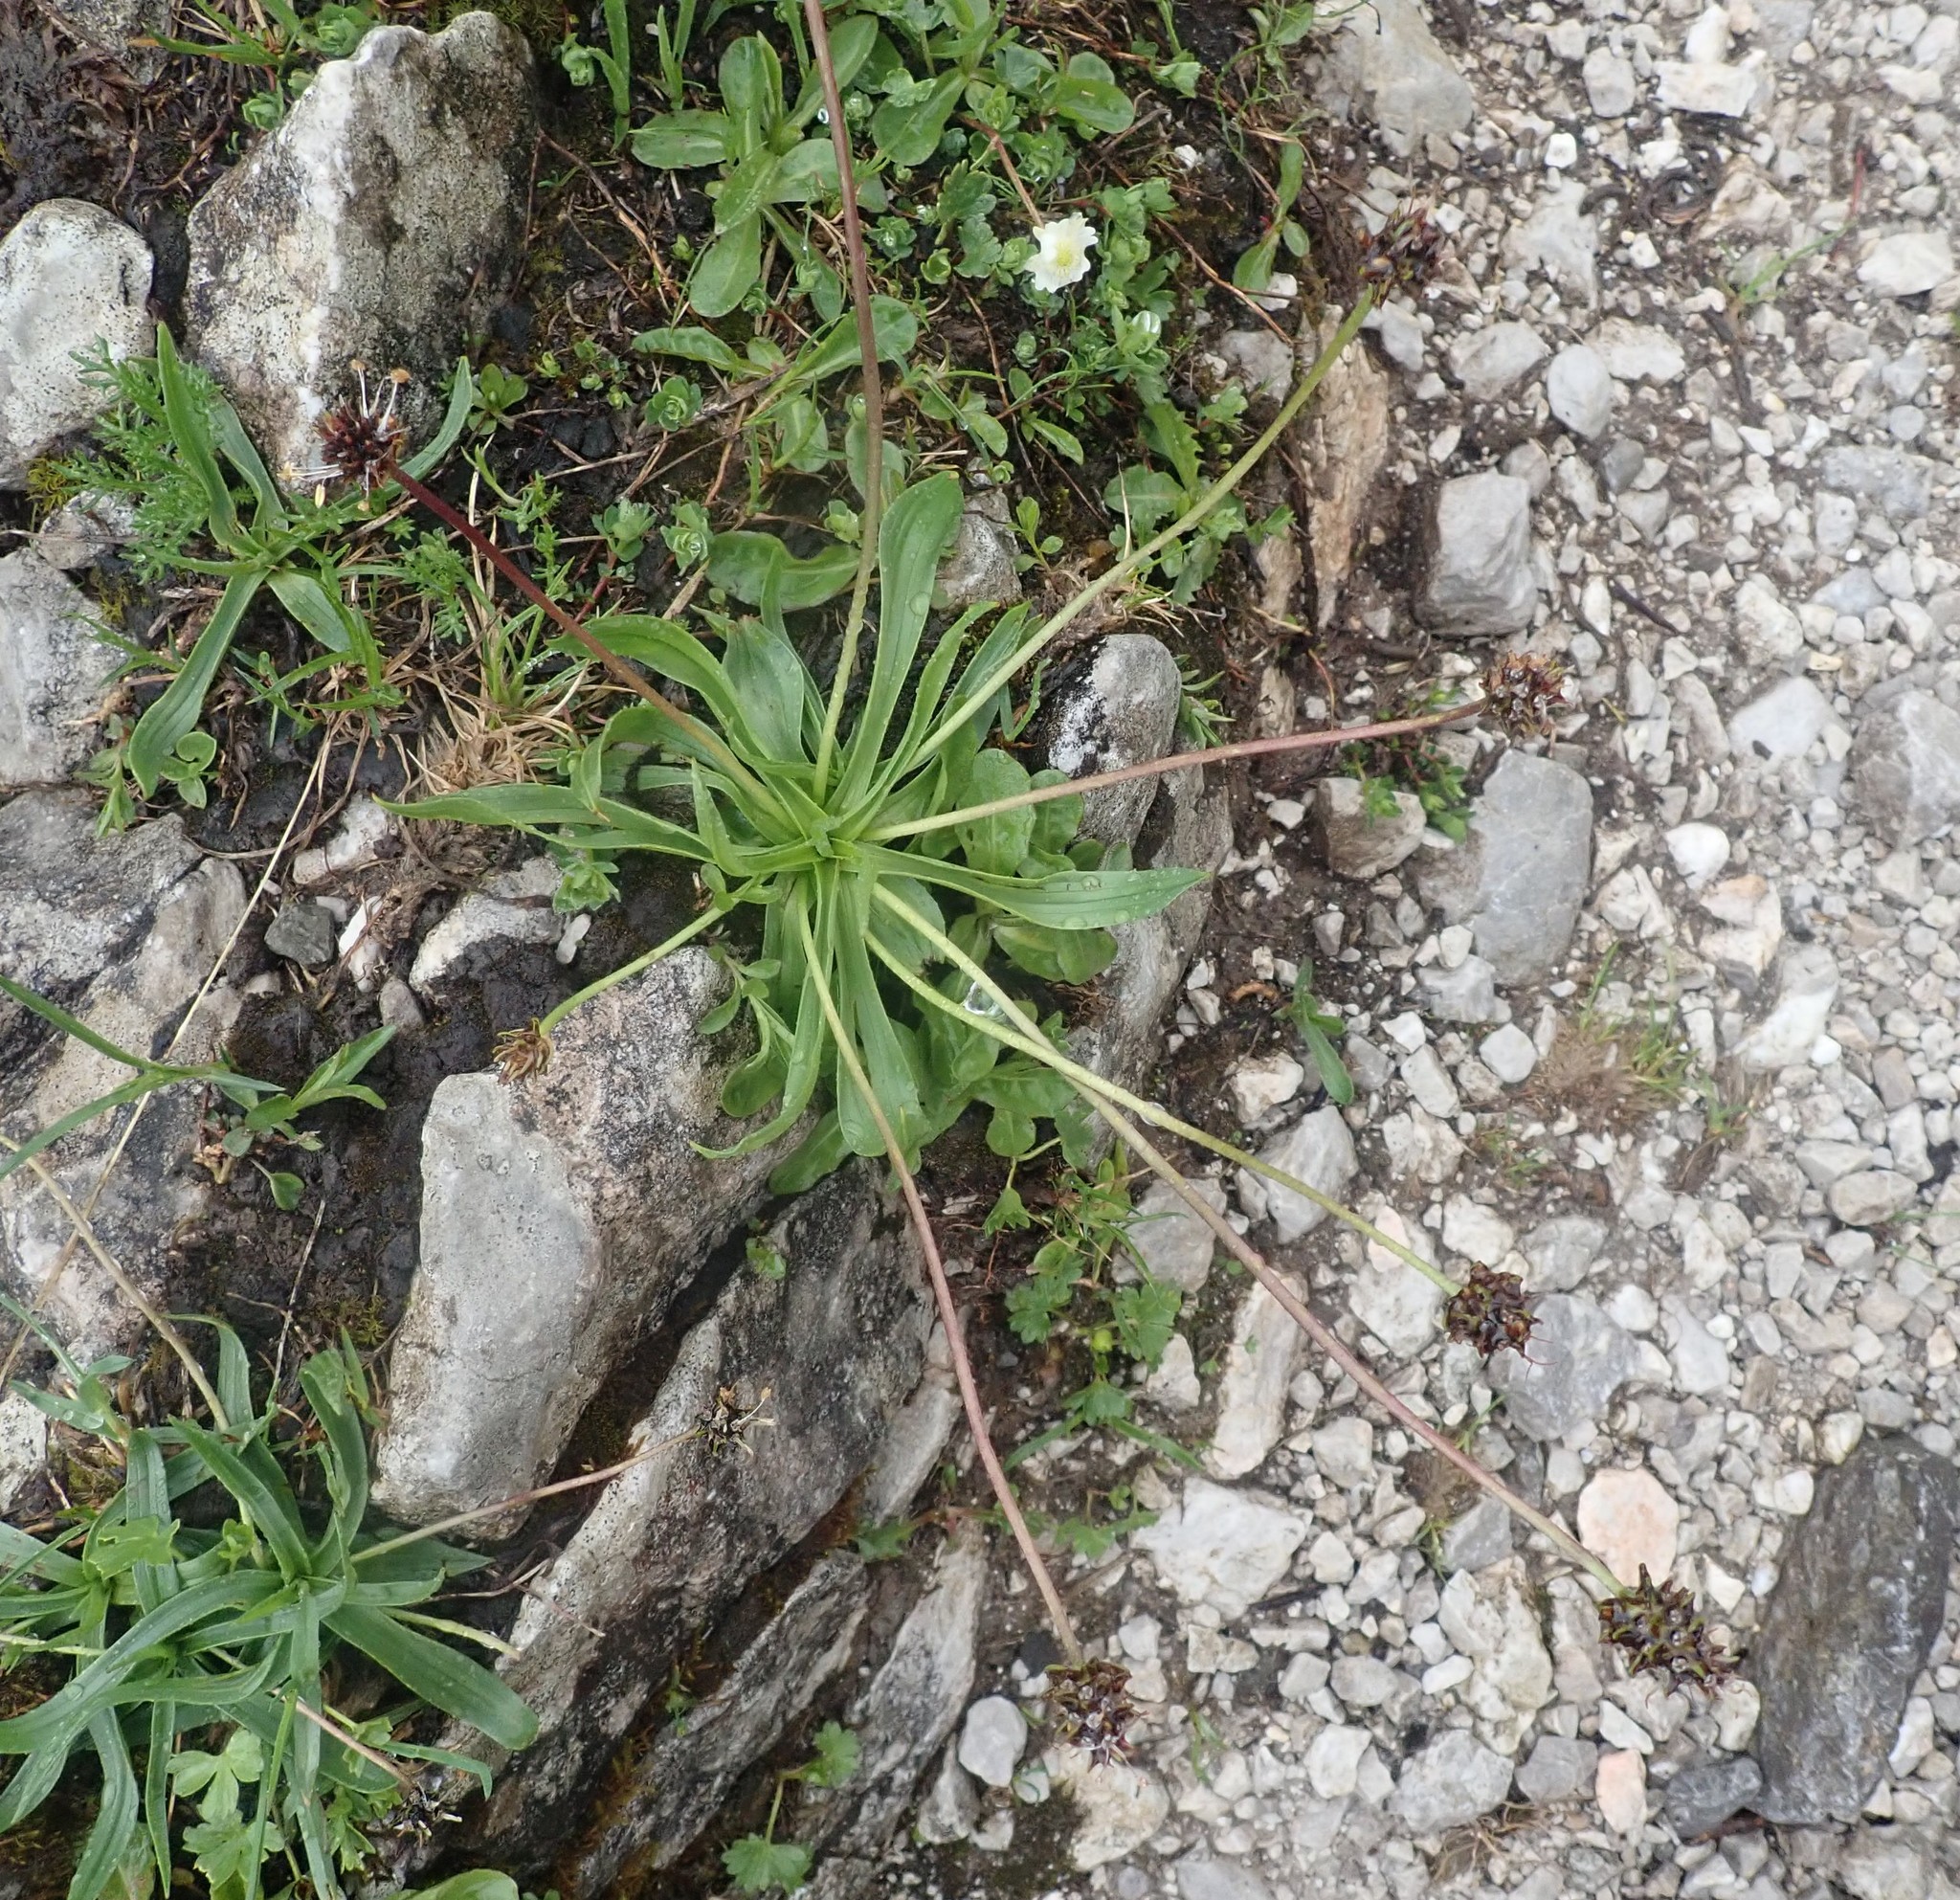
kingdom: Plantae
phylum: Tracheophyta
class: Magnoliopsida
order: Lamiales
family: Plantaginaceae
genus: Plantago
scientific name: Plantago atrata
